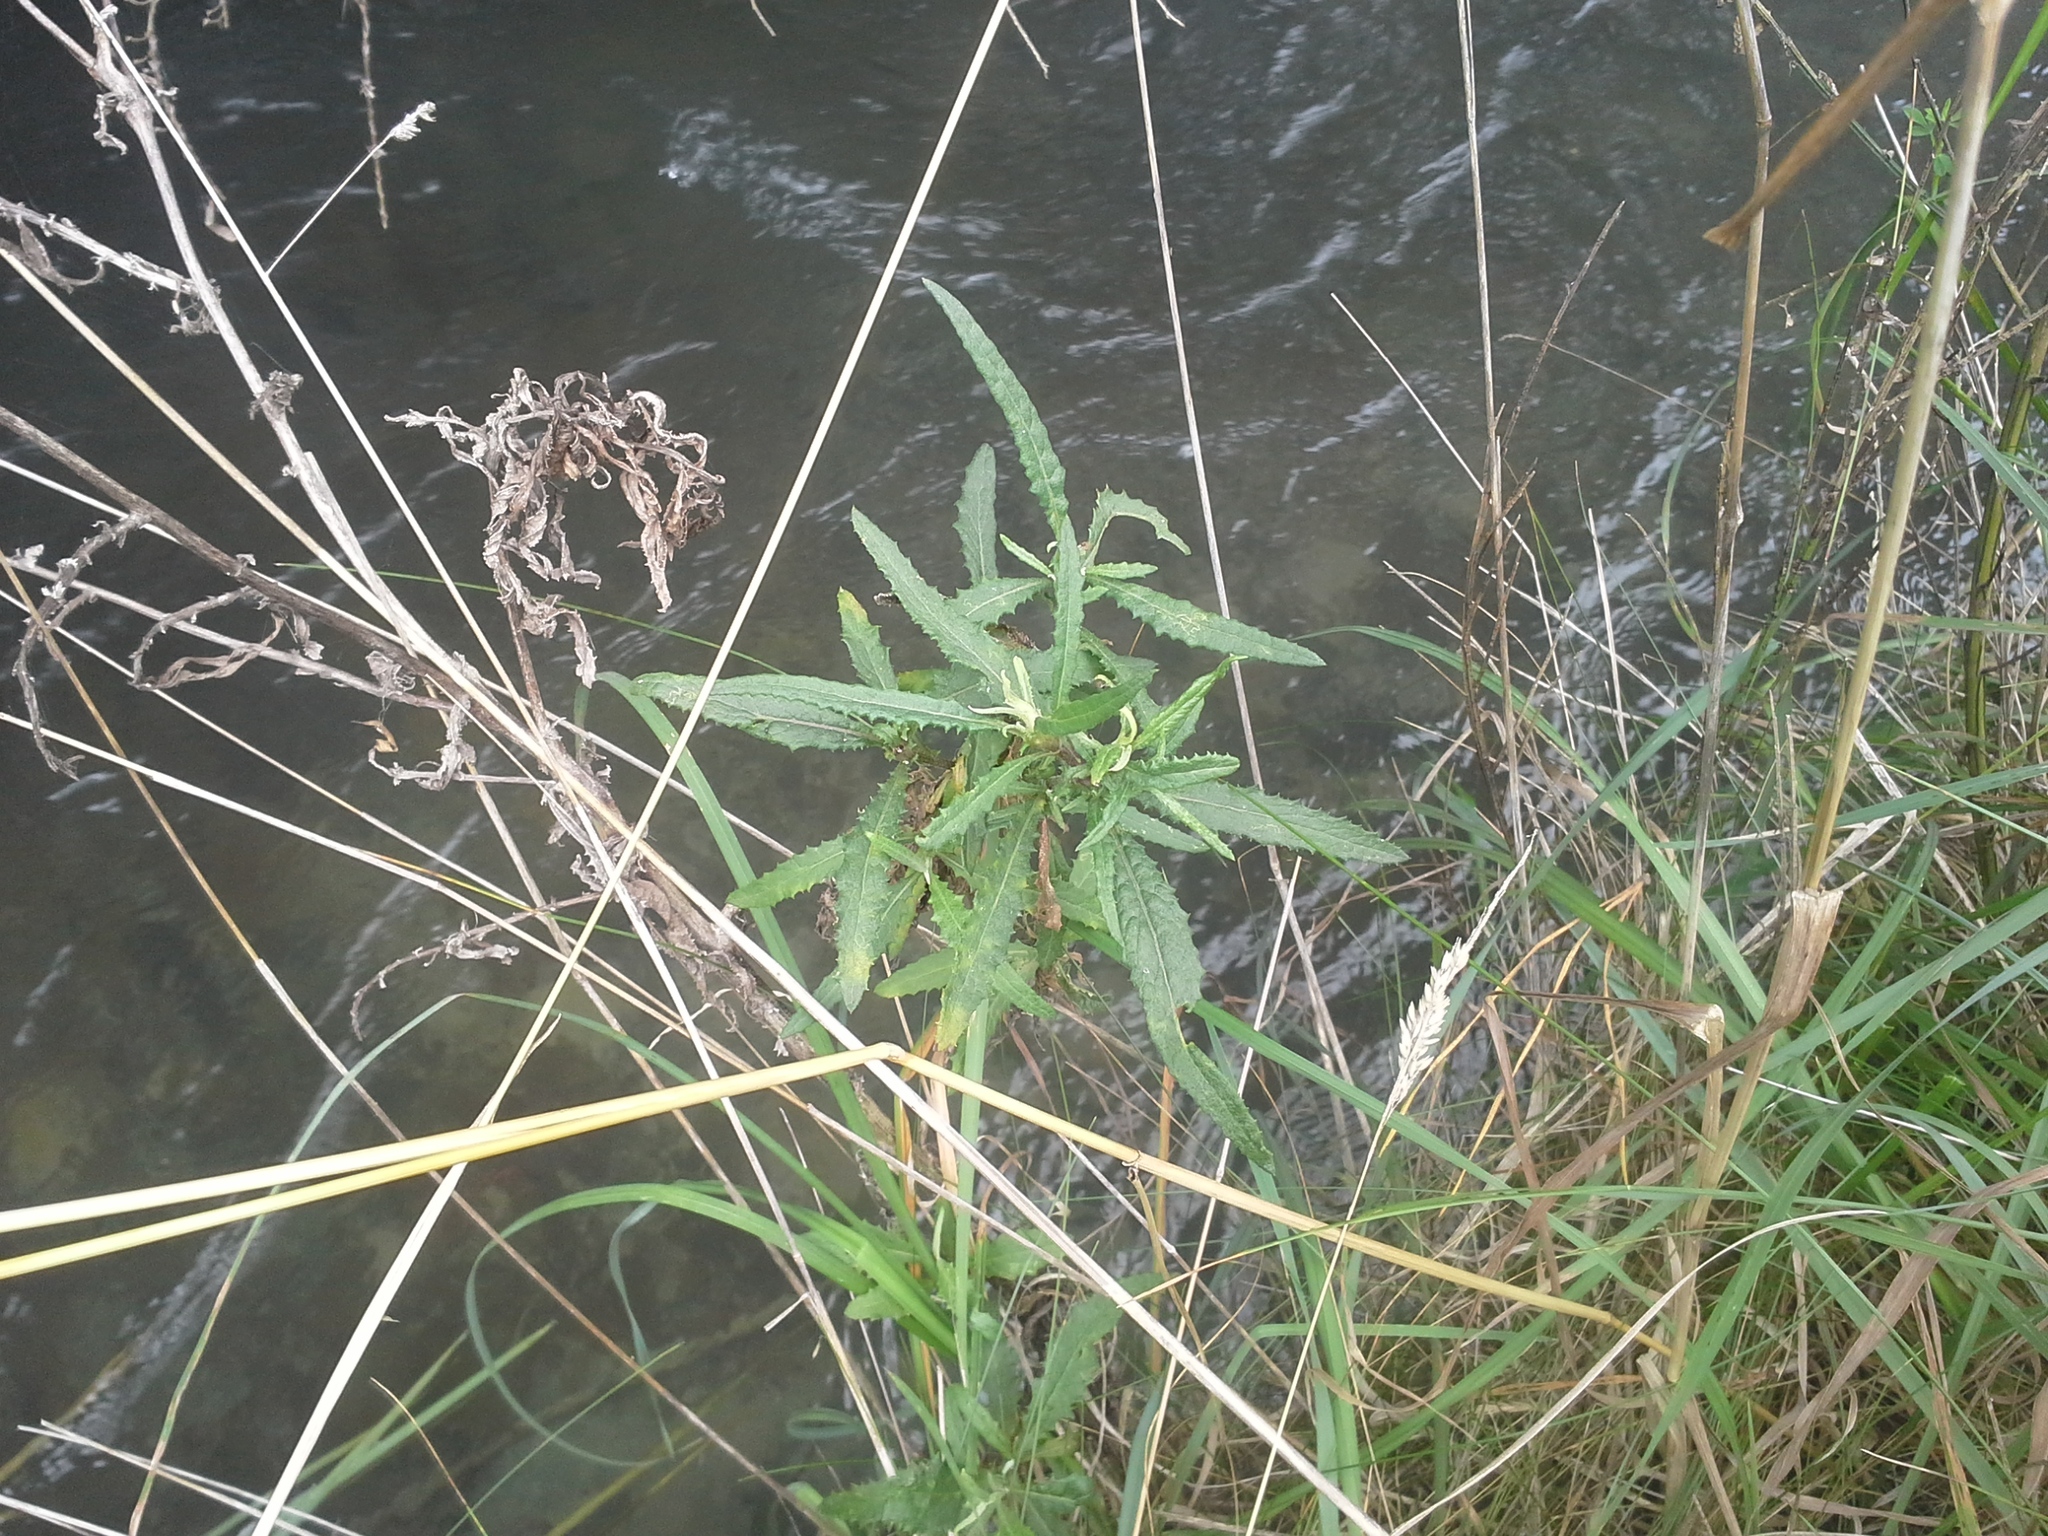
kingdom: Plantae
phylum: Tracheophyta
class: Magnoliopsida
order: Asterales
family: Asteraceae
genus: Senecio
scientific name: Senecio minimus
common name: Toothed fireweed
